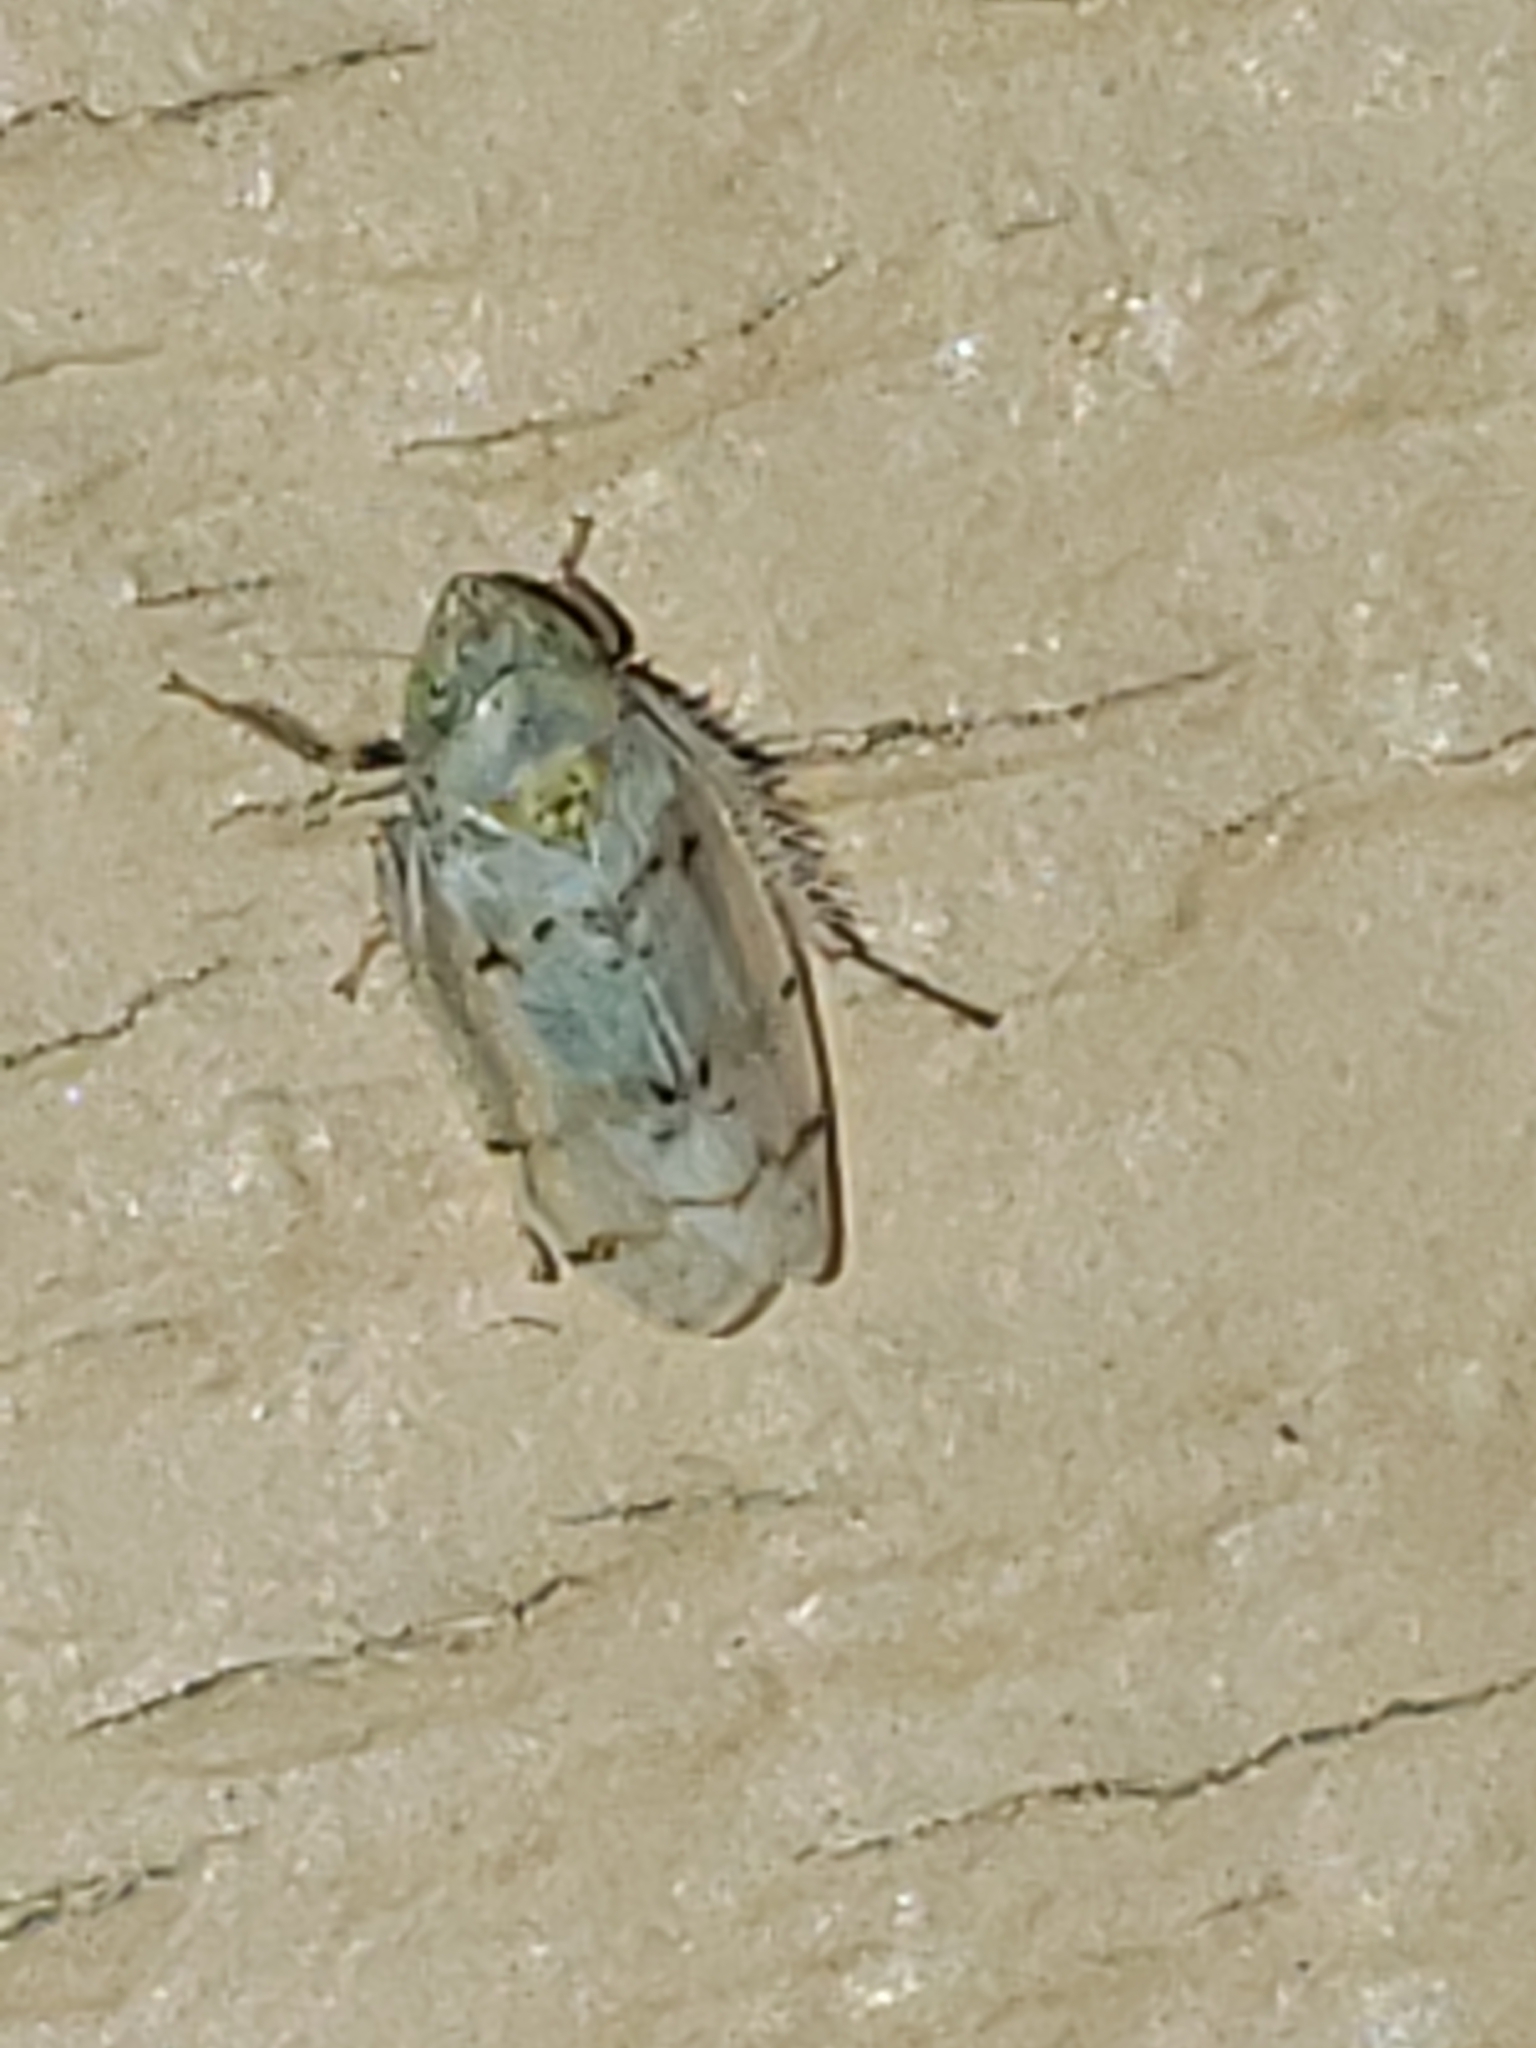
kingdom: Animalia
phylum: Arthropoda
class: Insecta
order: Hemiptera
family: Cicadellidae
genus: Japananus
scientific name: Japananus hyalinus
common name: The japanese maple leafhopper
